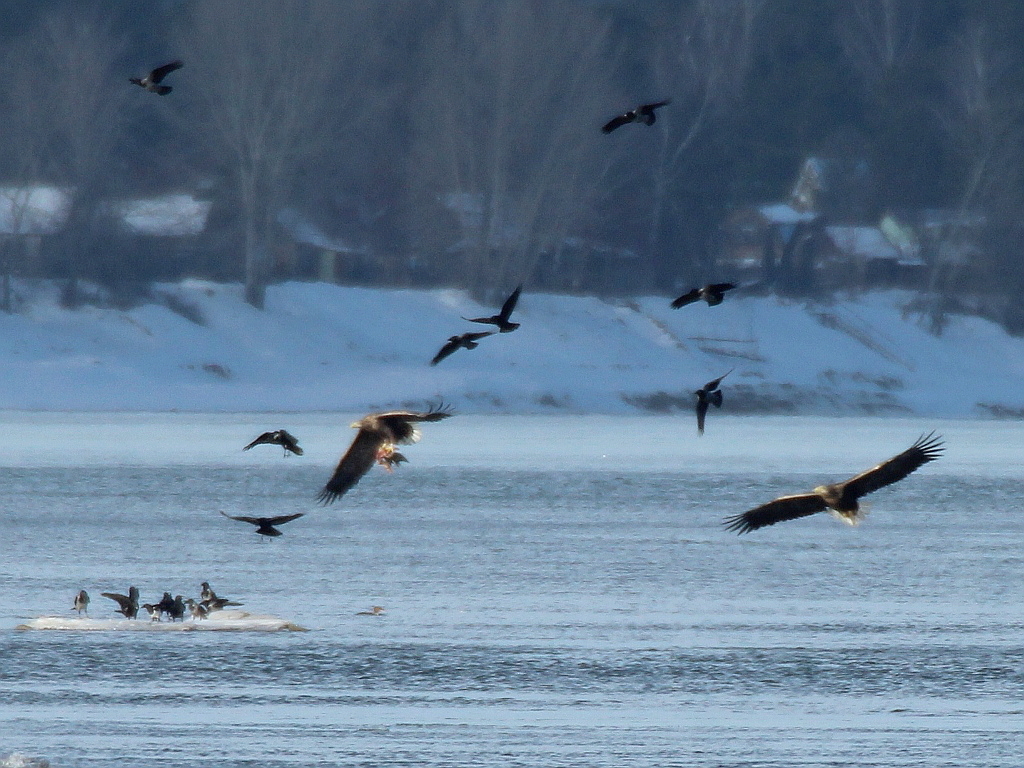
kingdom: Animalia
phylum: Chordata
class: Aves
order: Accipitriformes
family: Accipitridae
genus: Haliaeetus
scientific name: Haliaeetus albicilla
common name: White-tailed eagle
